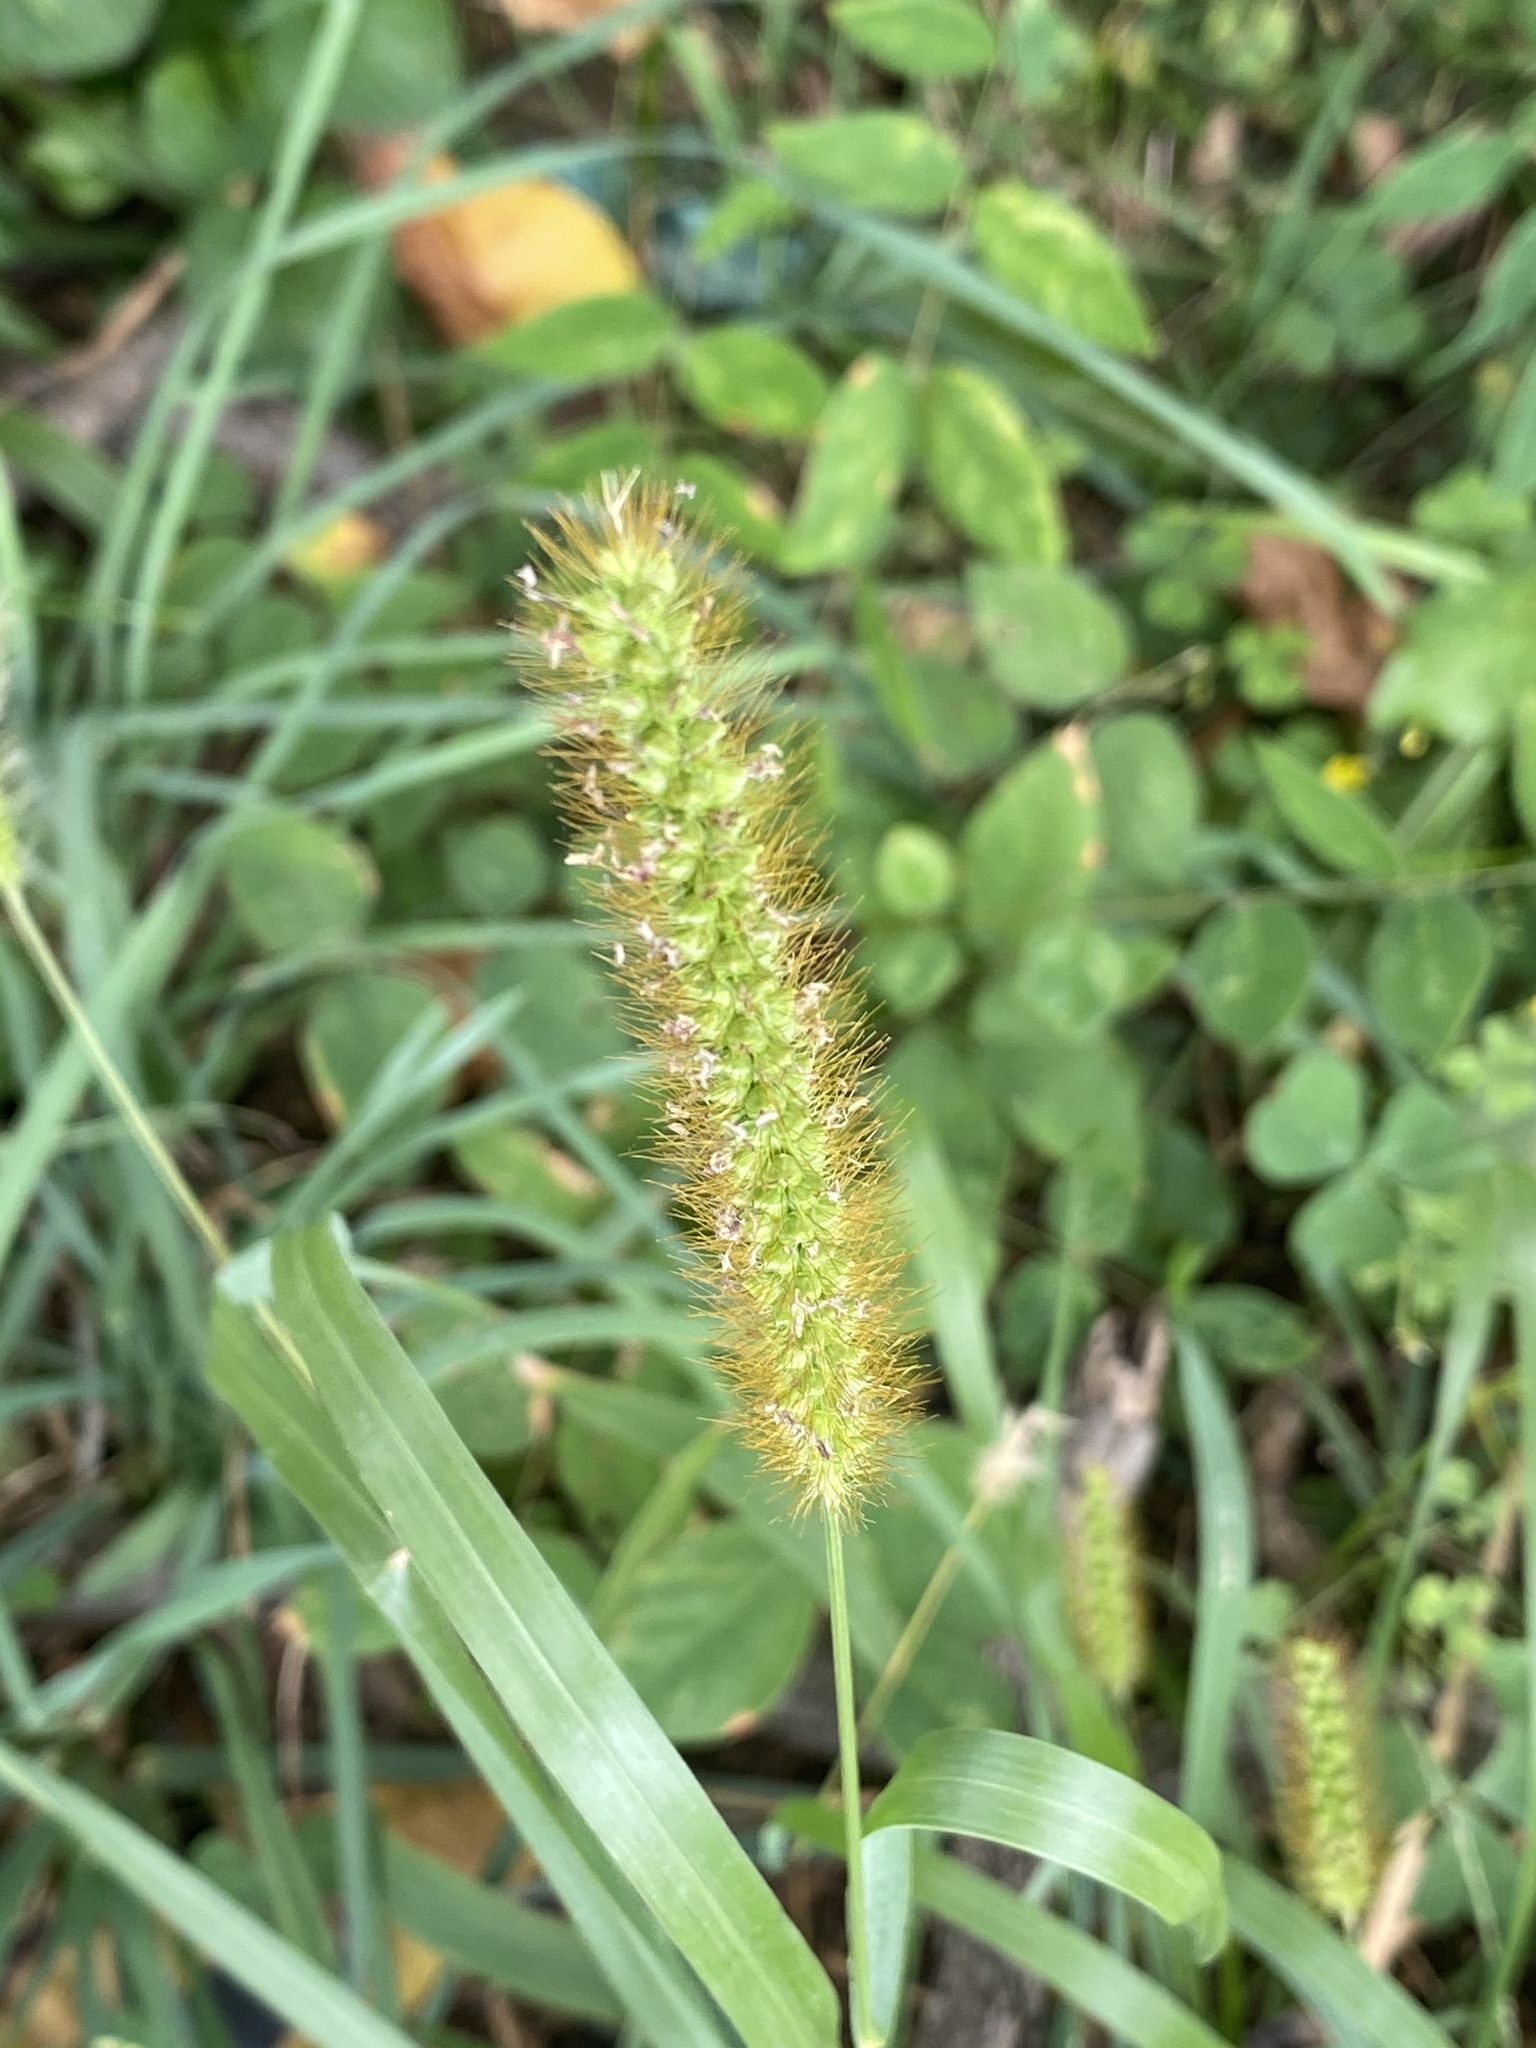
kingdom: Plantae
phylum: Tracheophyta
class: Liliopsida
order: Poales
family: Poaceae
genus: Setaria
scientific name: Setaria pumila
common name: Yellow bristle-grass
